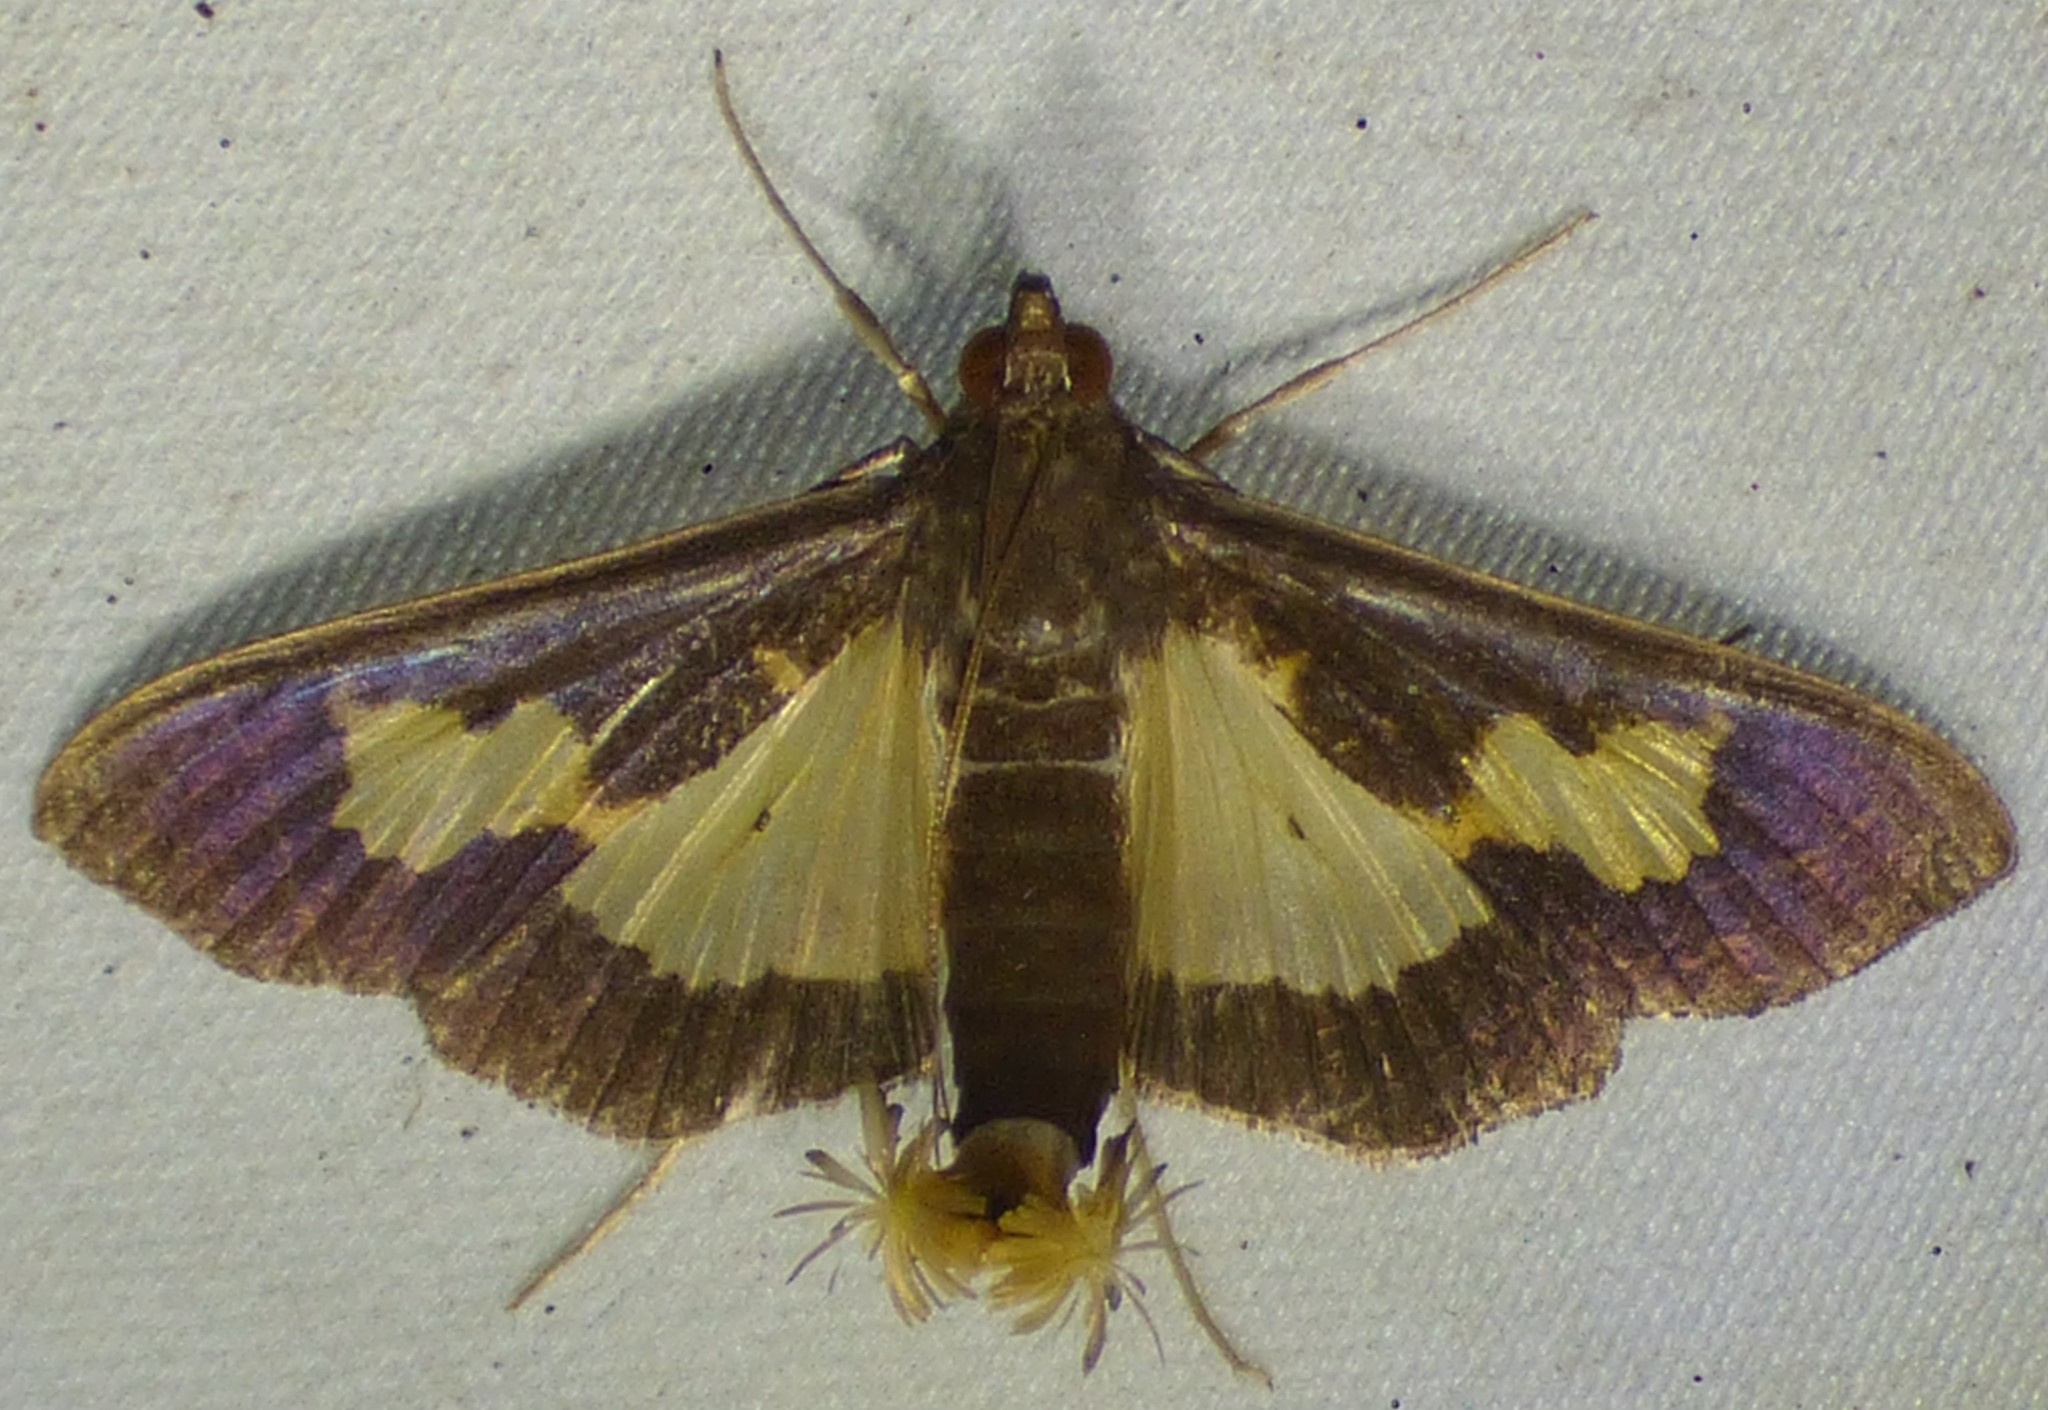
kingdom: Animalia
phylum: Arthropoda
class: Insecta
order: Lepidoptera
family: Crambidae
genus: Cryptographis
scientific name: Cryptographis nitidalis
